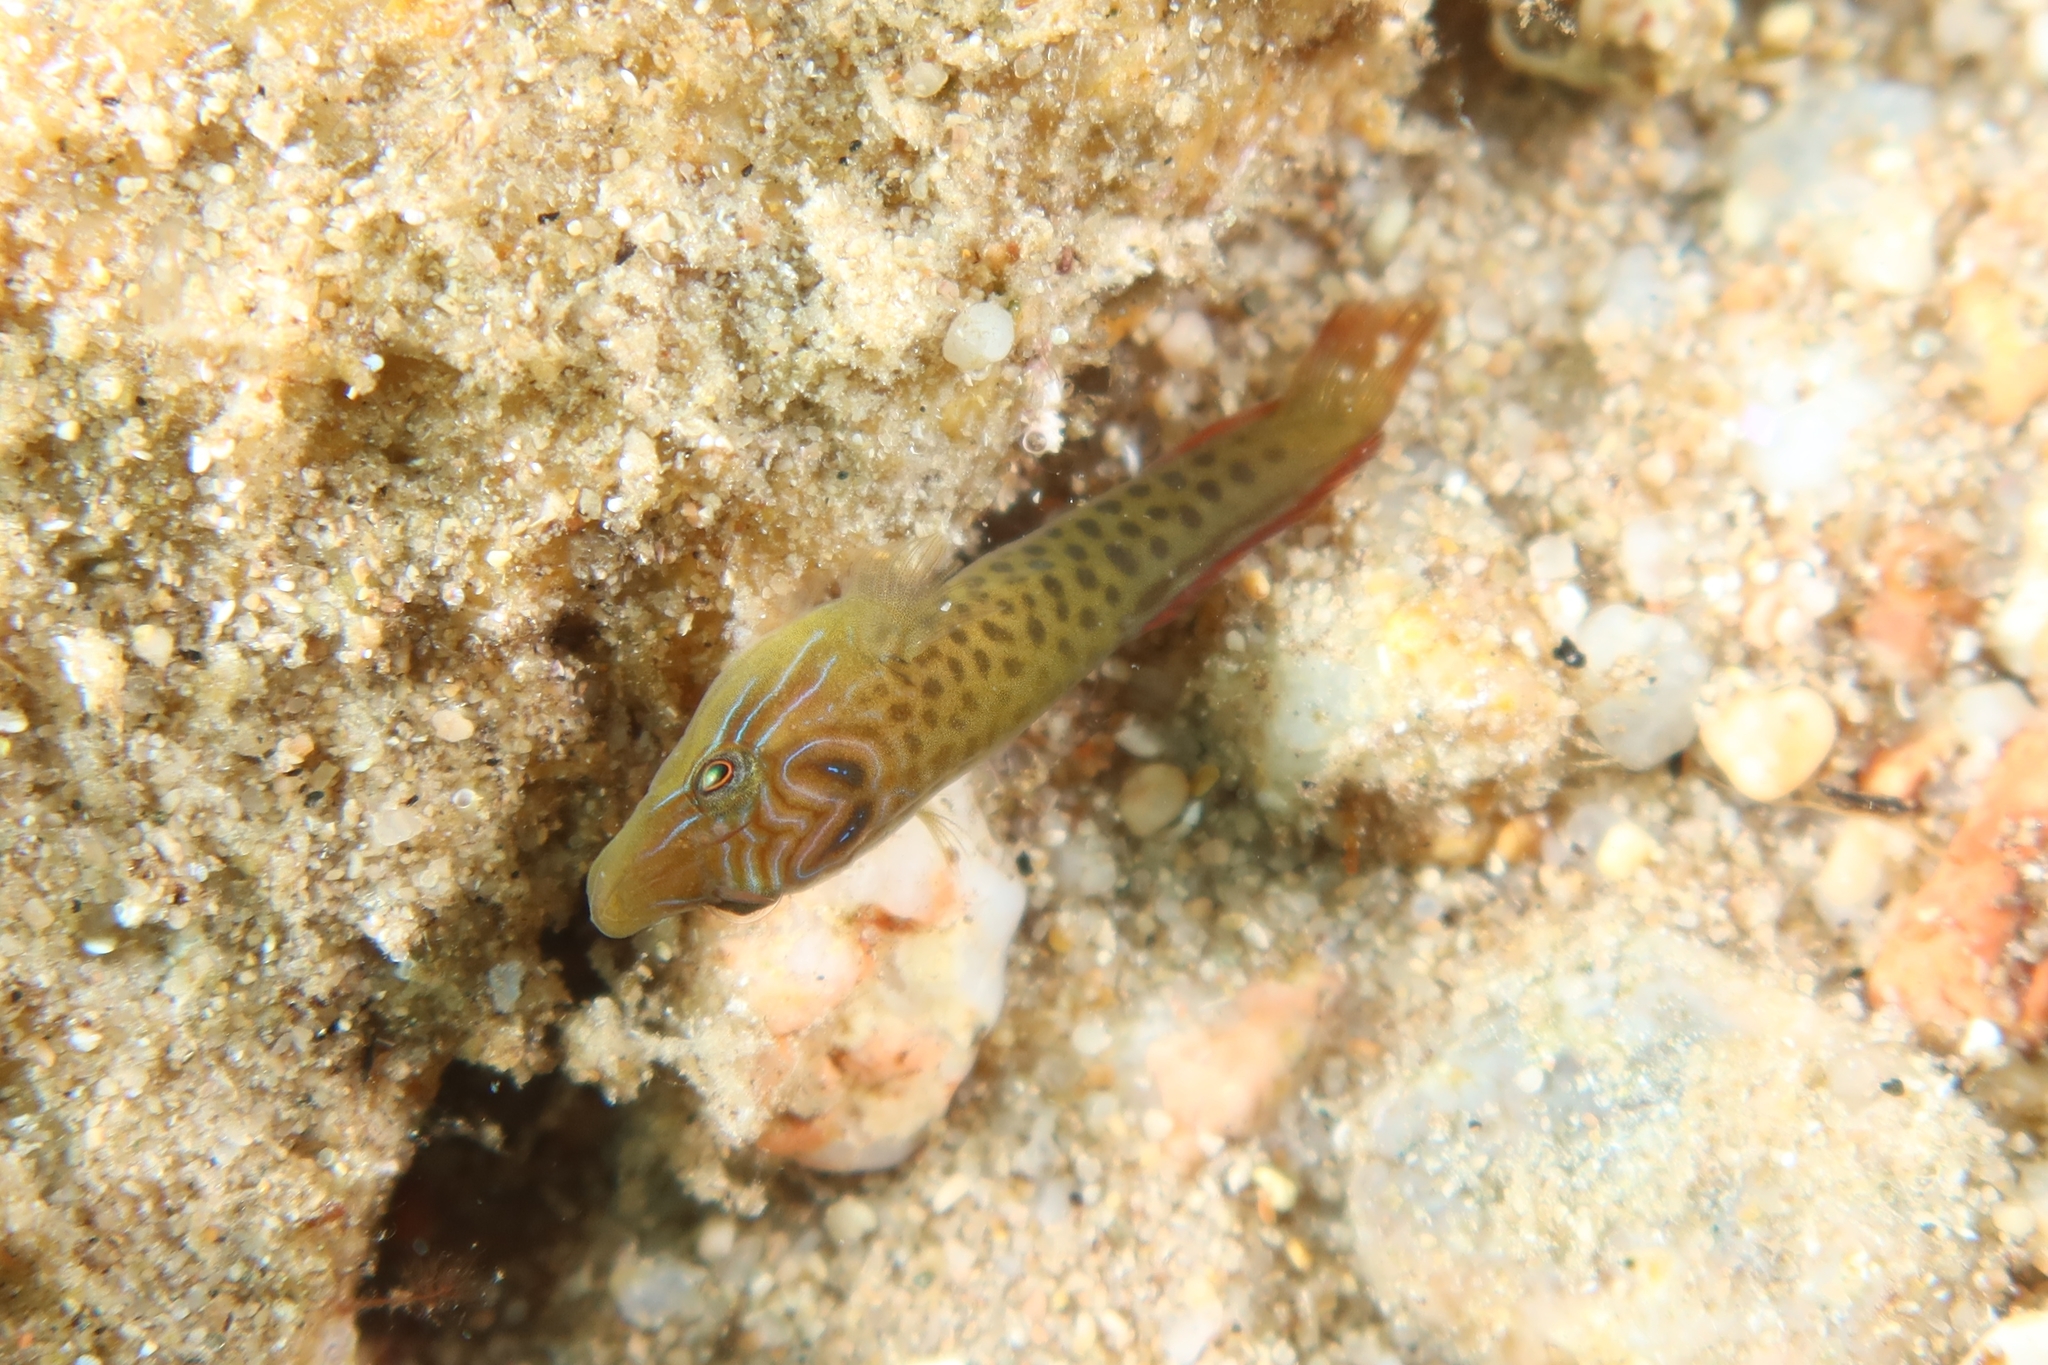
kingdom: Animalia
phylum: Chordata
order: Gobiesociformes
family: Gobiesocidae
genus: Lepadogaster
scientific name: Lepadogaster lepadogaster
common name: Cornish sucker
